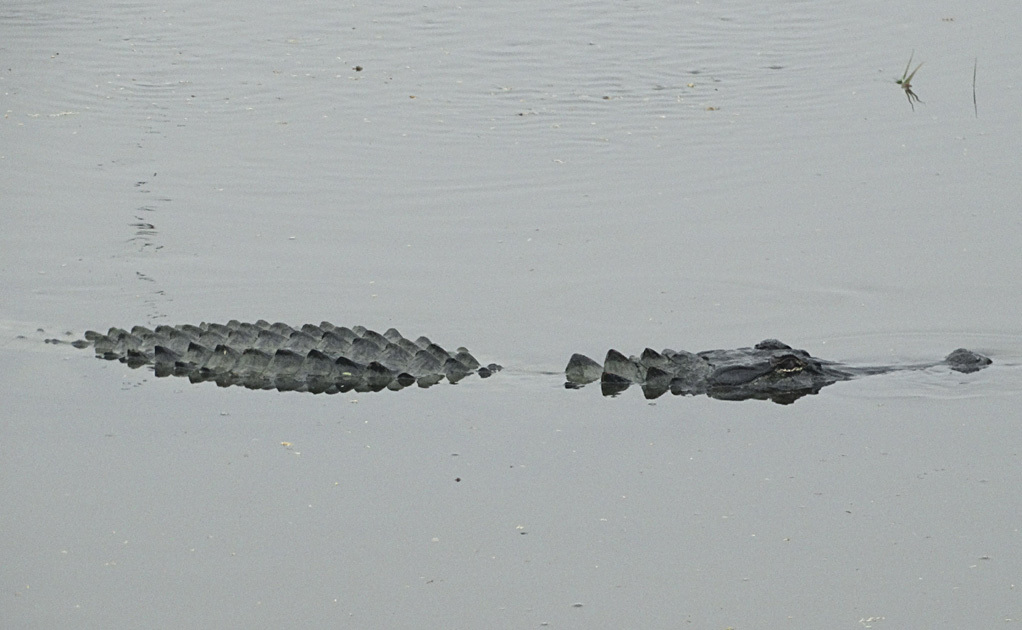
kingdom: Animalia
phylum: Chordata
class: Crocodylia
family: Alligatoridae
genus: Alligator
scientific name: Alligator mississippiensis
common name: American alligator
